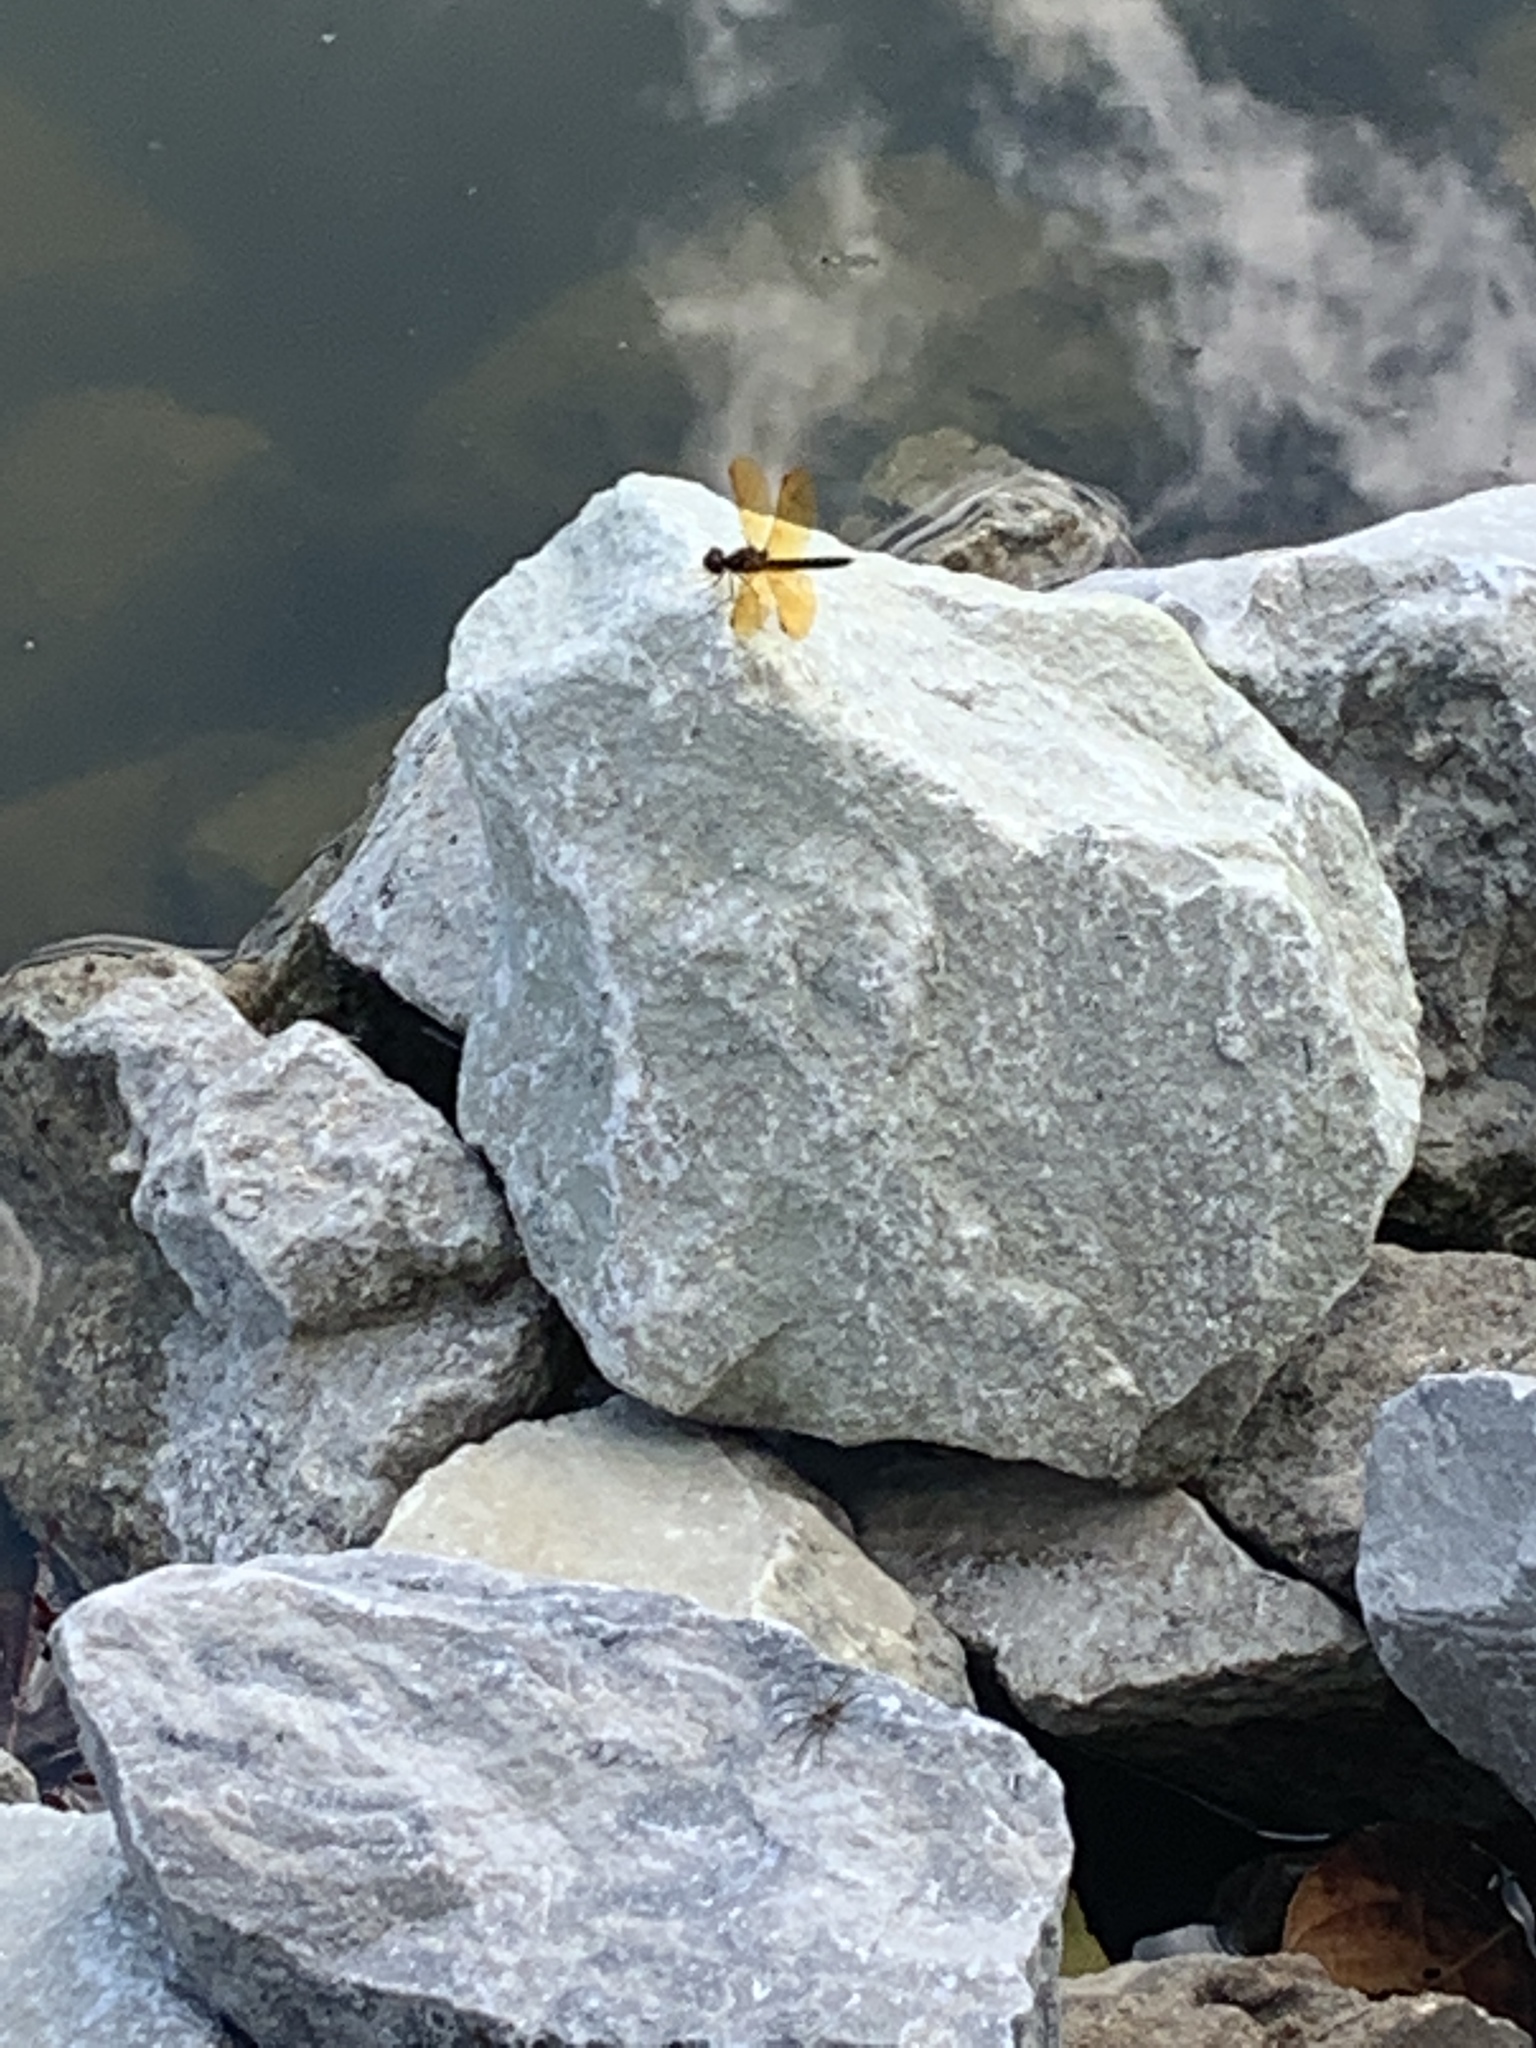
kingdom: Animalia
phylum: Arthropoda
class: Insecta
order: Odonata
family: Libellulidae
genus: Perithemis
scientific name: Perithemis tenera
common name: Eastern amberwing
